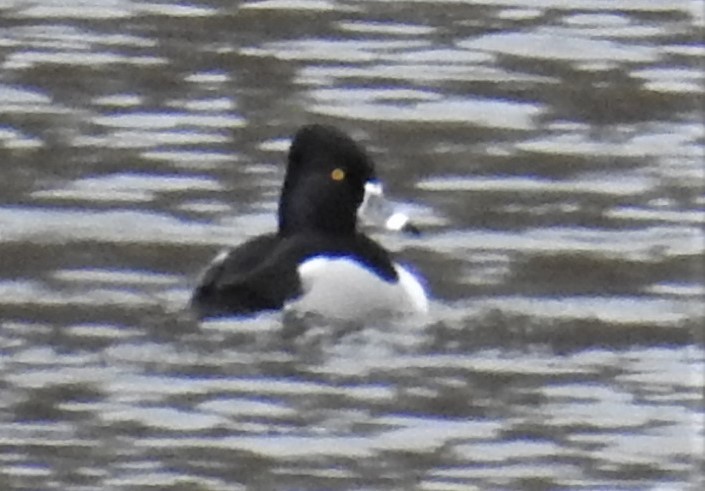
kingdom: Animalia
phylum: Chordata
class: Aves
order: Anseriformes
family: Anatidae
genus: Aythya
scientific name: Aythya collaris
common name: Ring-necked duck
